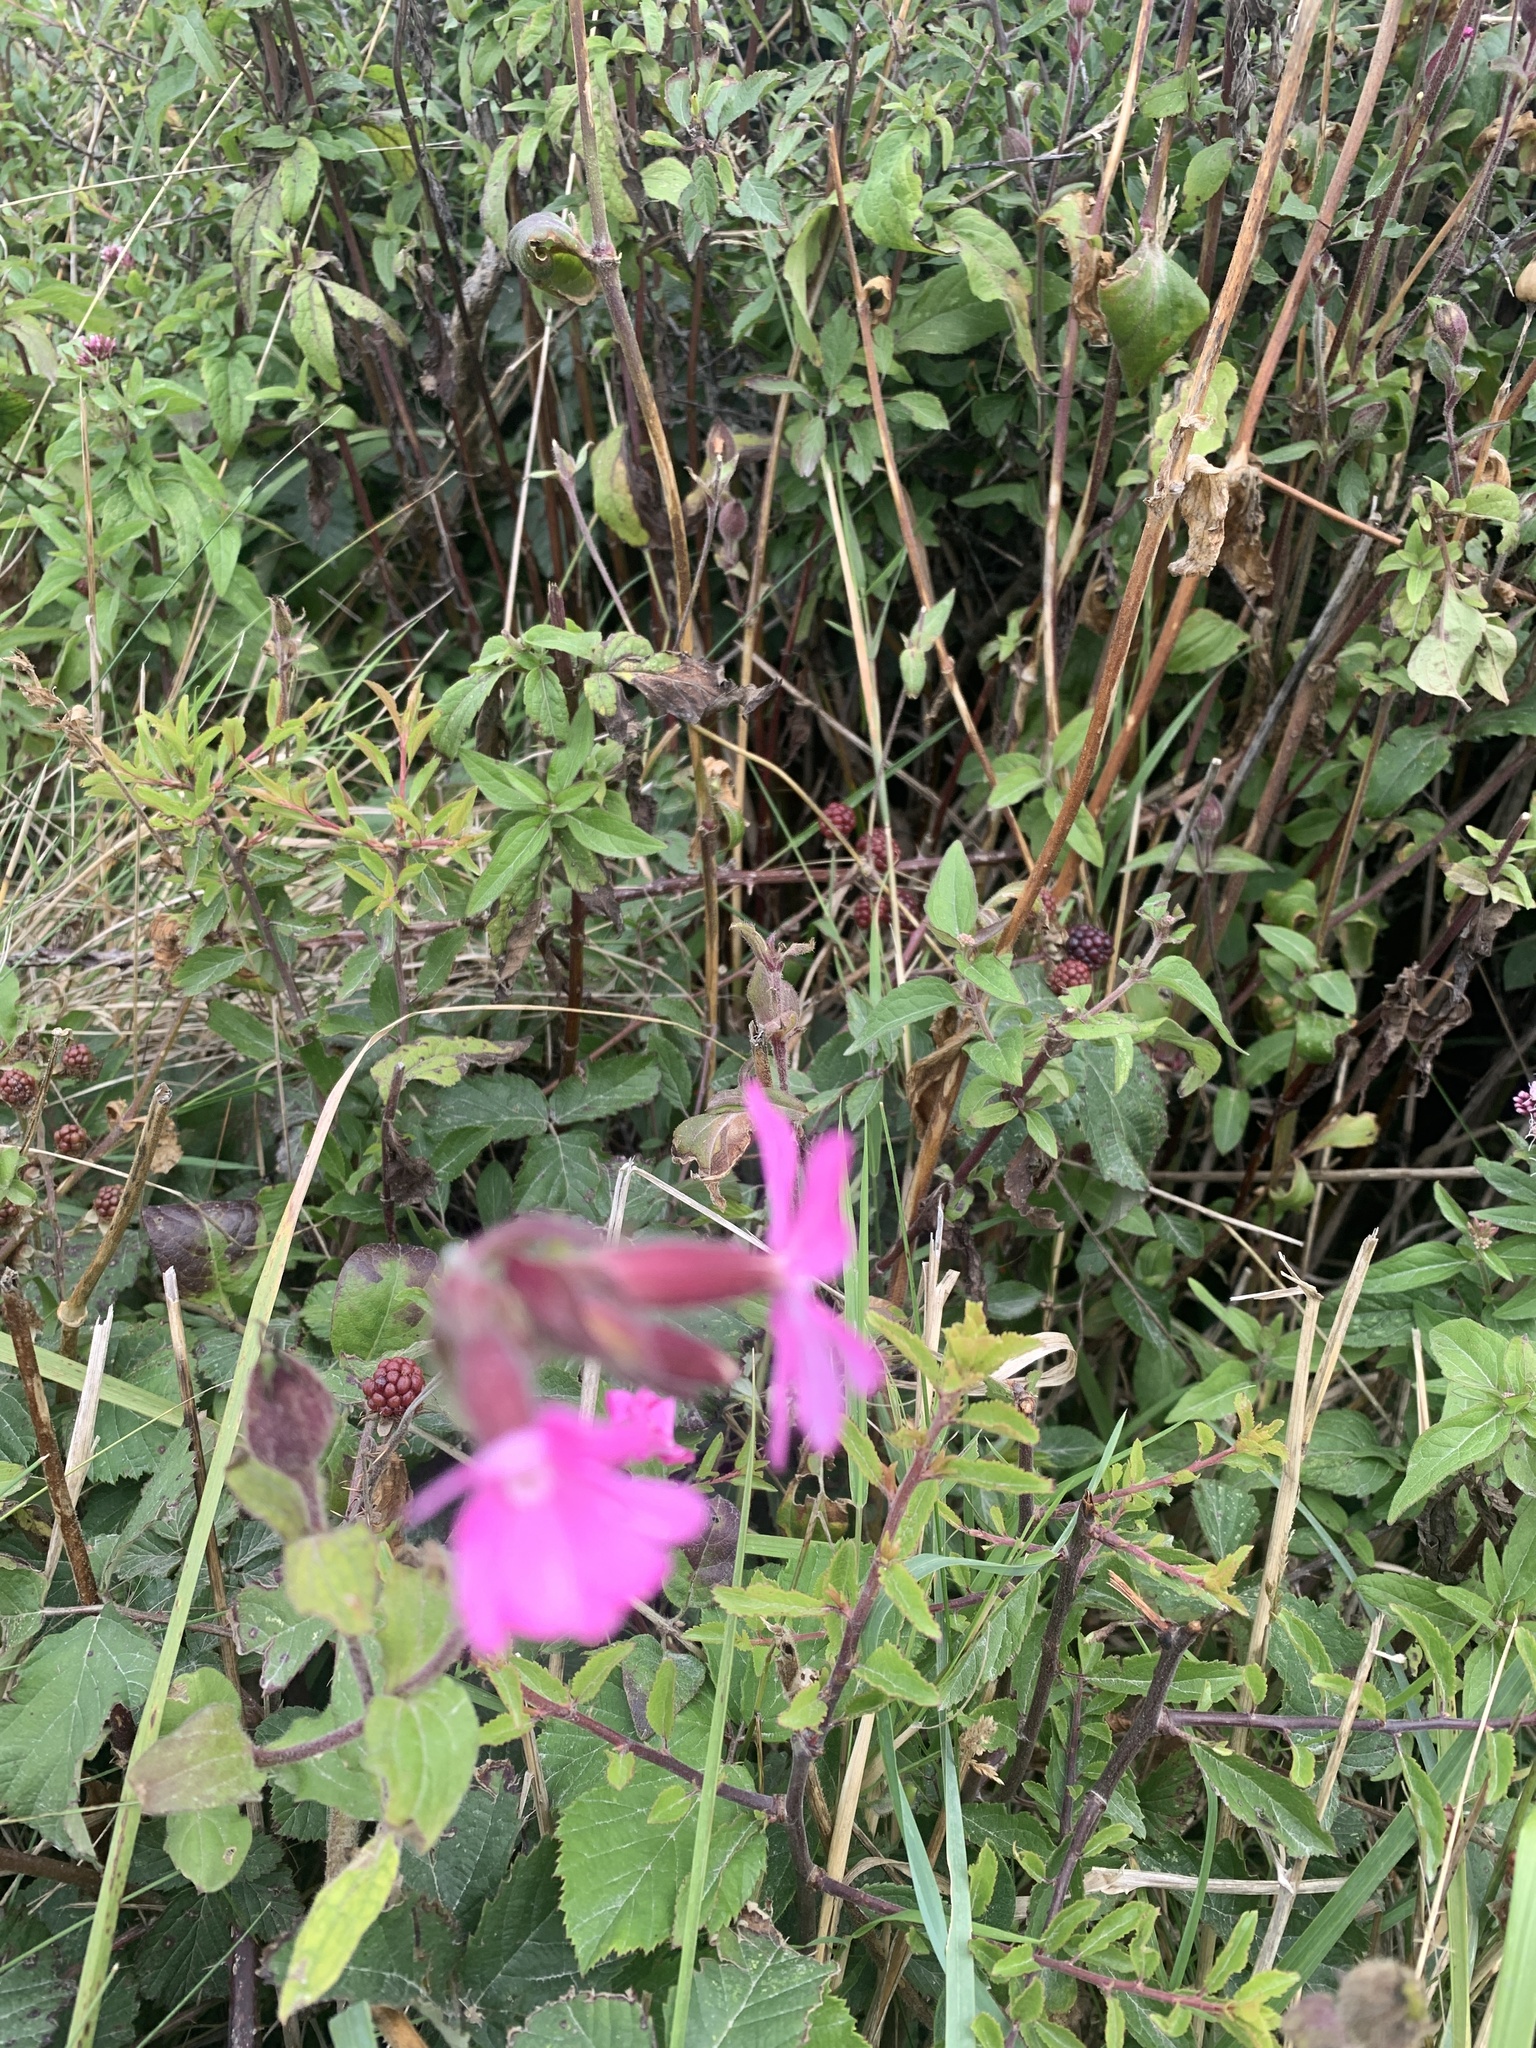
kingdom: Plantae
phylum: Tracheophyta
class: Magnoliopsida
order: Caryophyllales
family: Caryophyllaceae
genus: Silene
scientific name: Silene dioica
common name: Red campion
